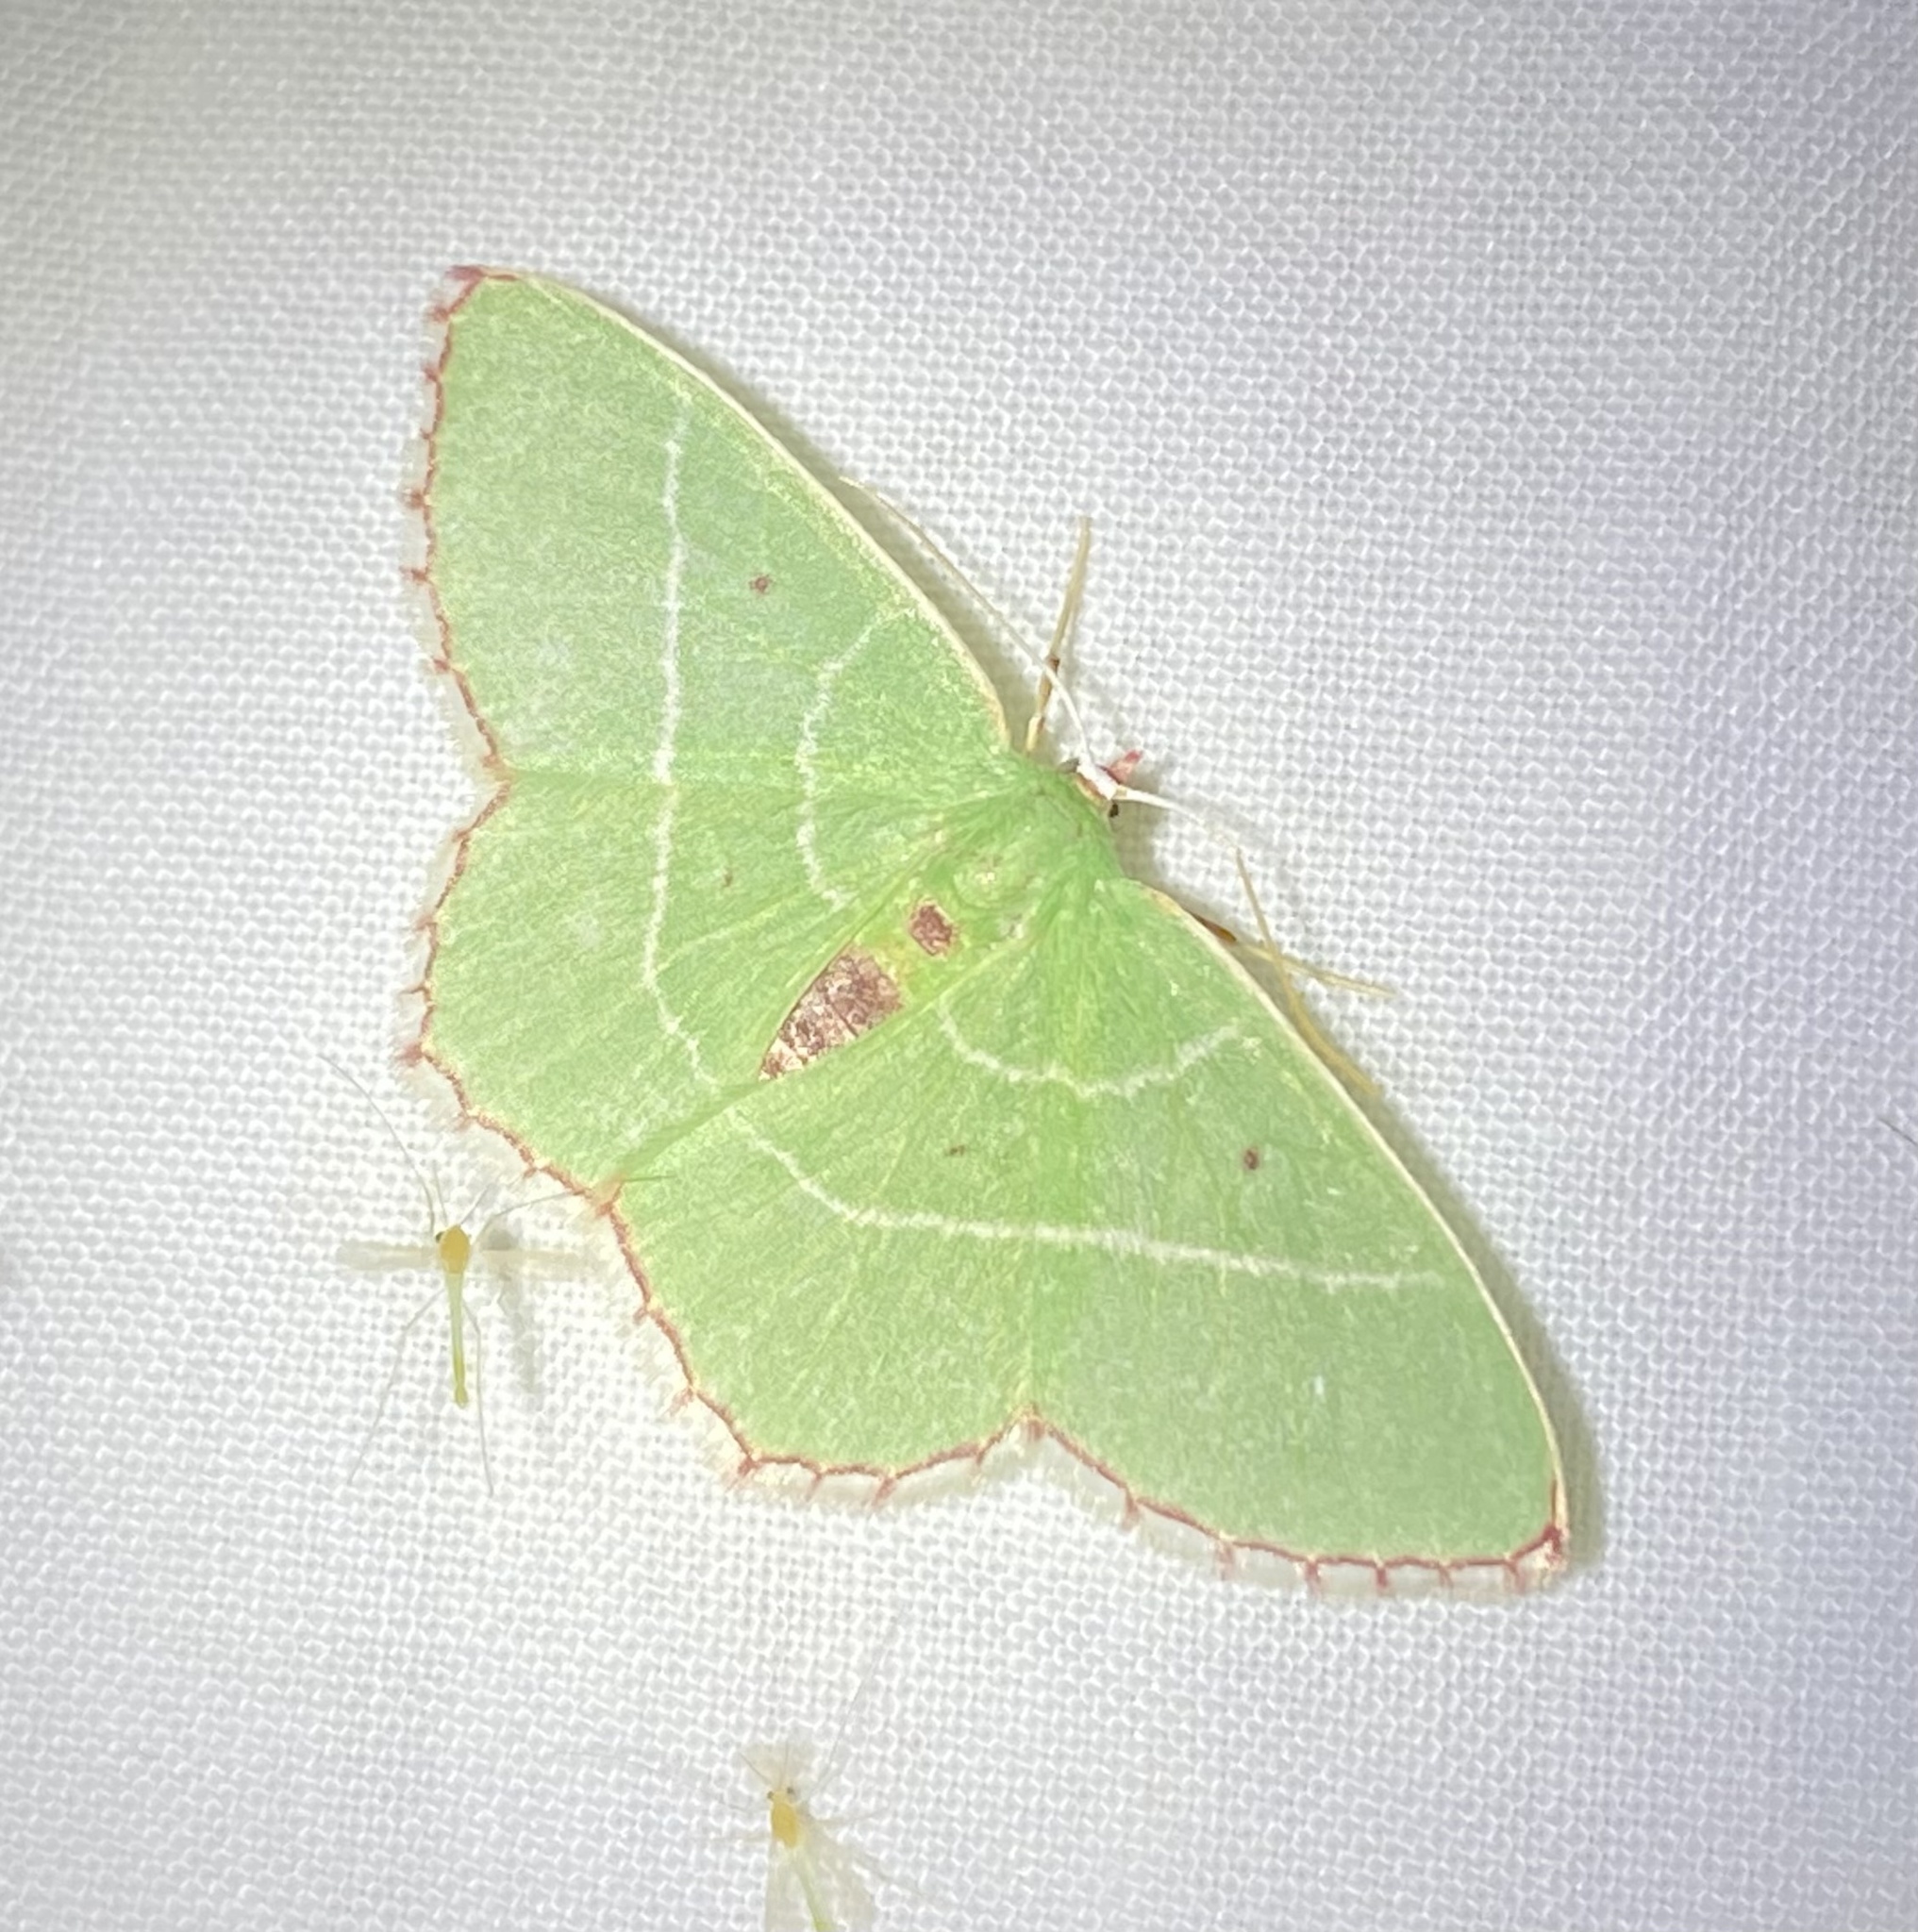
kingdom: Animalia
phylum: Arthropoda
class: Insecta
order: Lepidoptera
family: Geometridae
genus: Nemoria
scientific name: Nemoria saturiba
